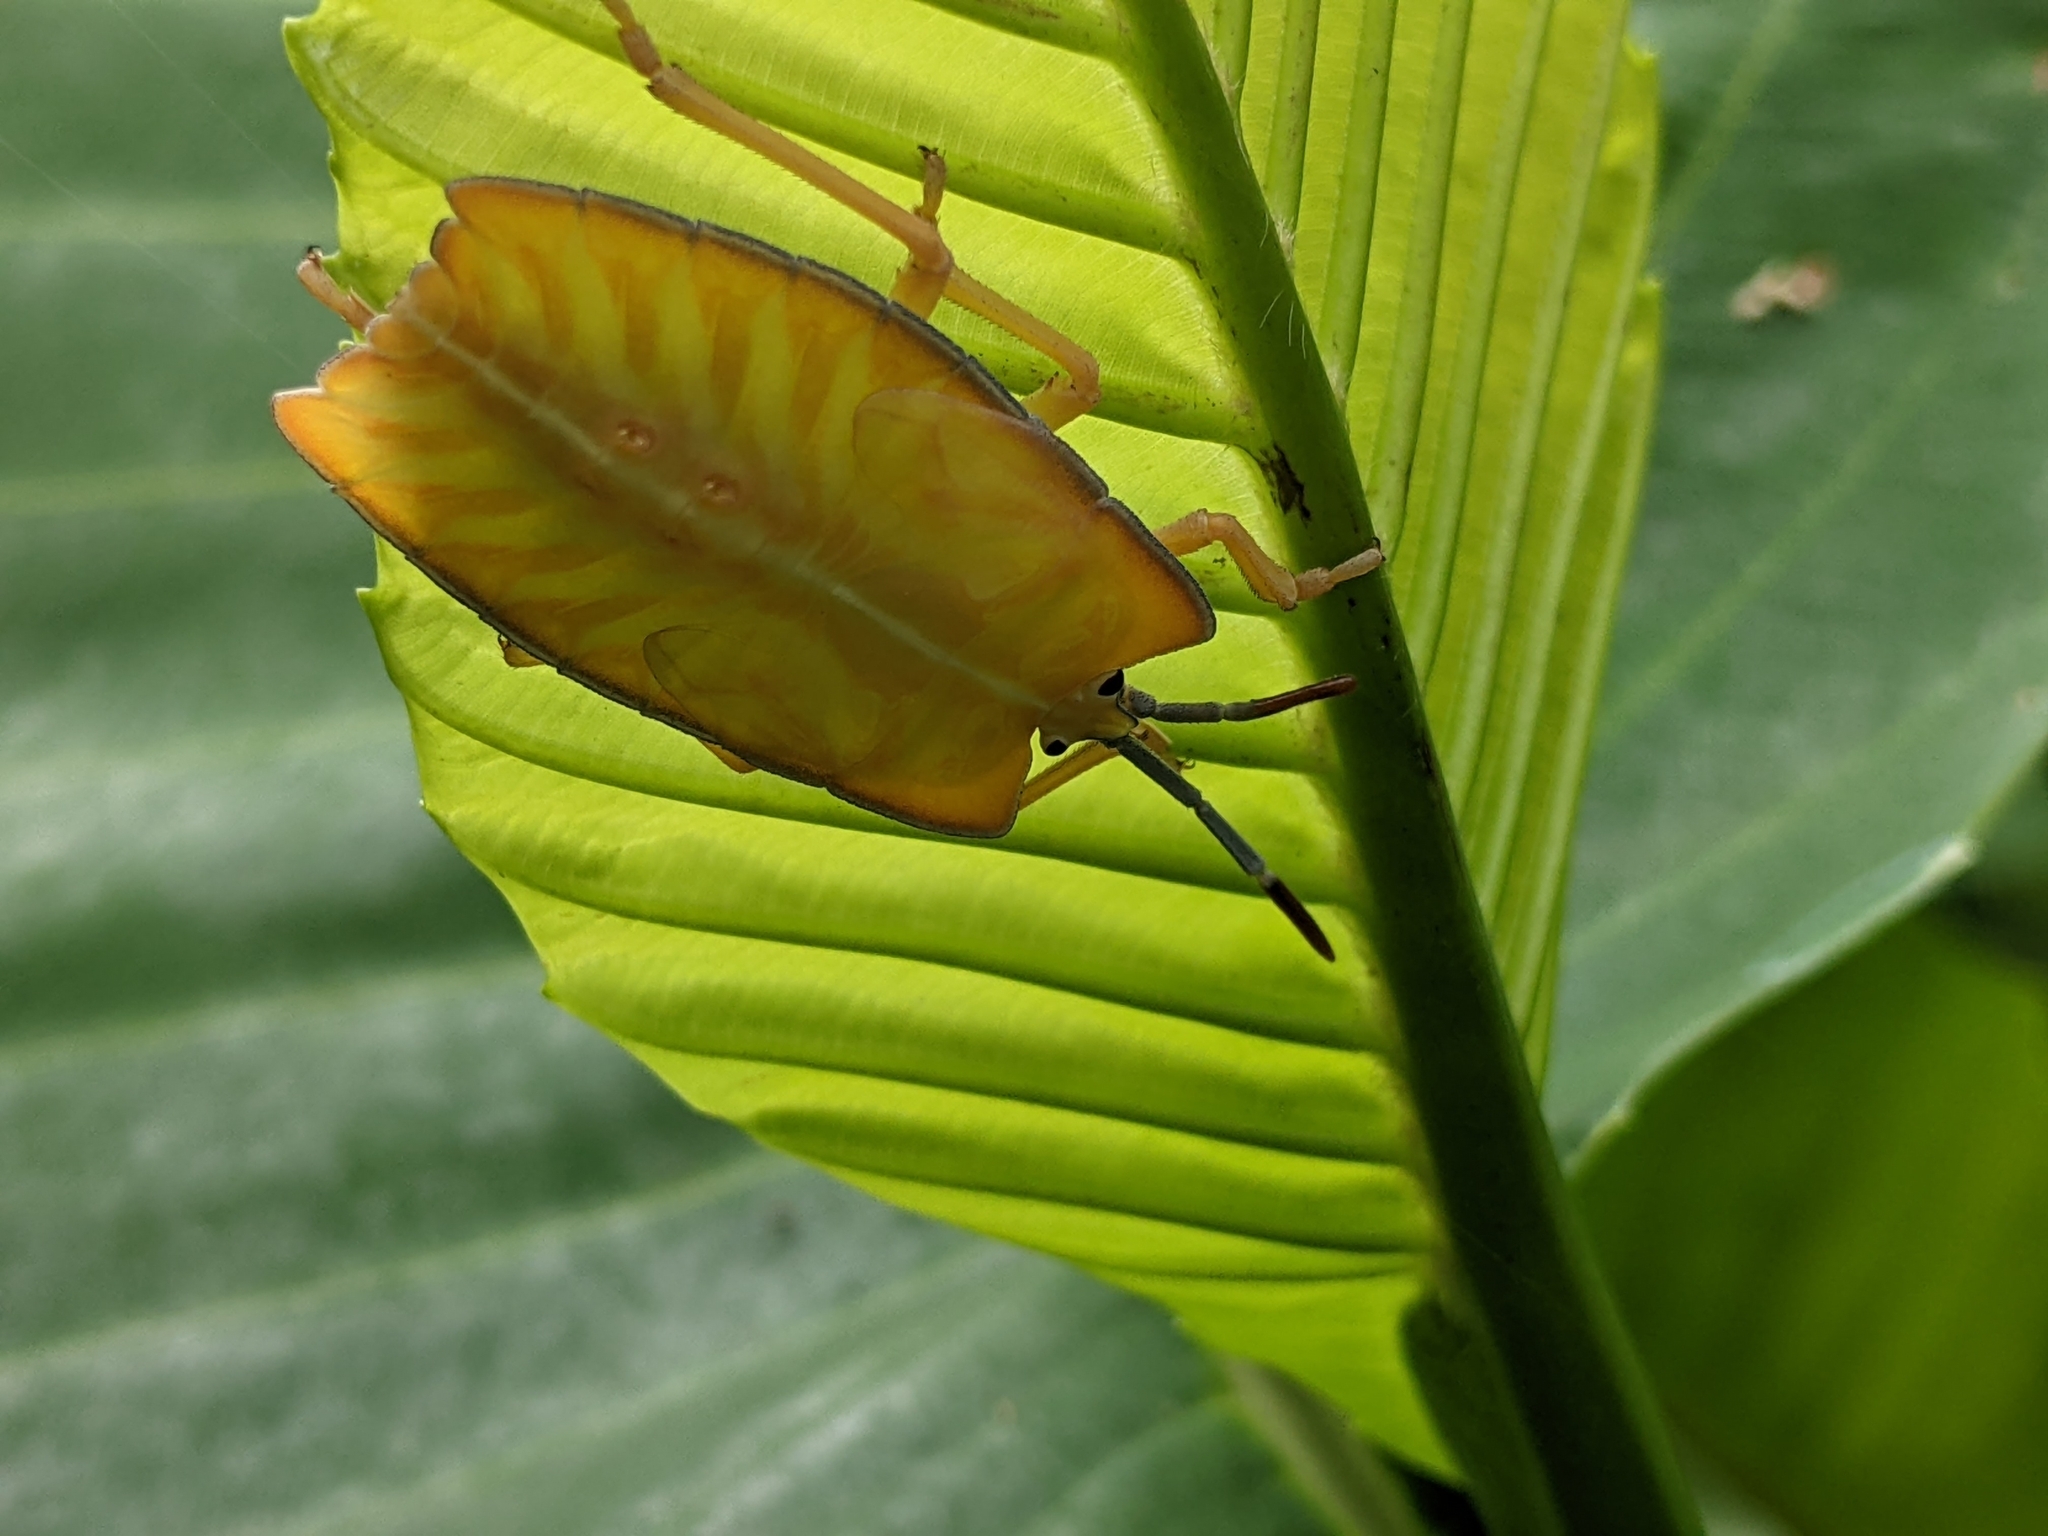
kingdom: Animalia
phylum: Arthropoda
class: Insecta
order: Hemiptera
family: Tessaratomidae
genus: Pycanum
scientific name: Pycanum alternatum
